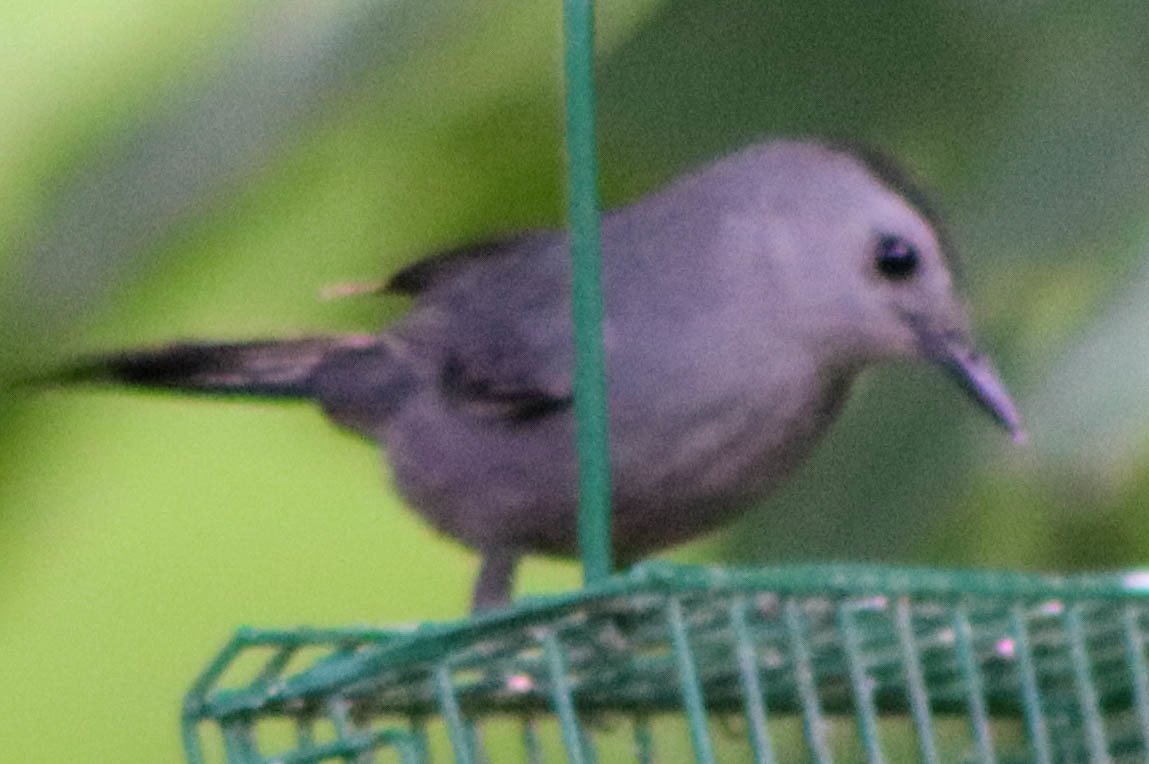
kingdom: Animalia
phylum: Chordata
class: Aves
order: Passeriformes
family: Mimidae
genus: Dumetella
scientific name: Dumetella carolinensis
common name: Gray catbird
